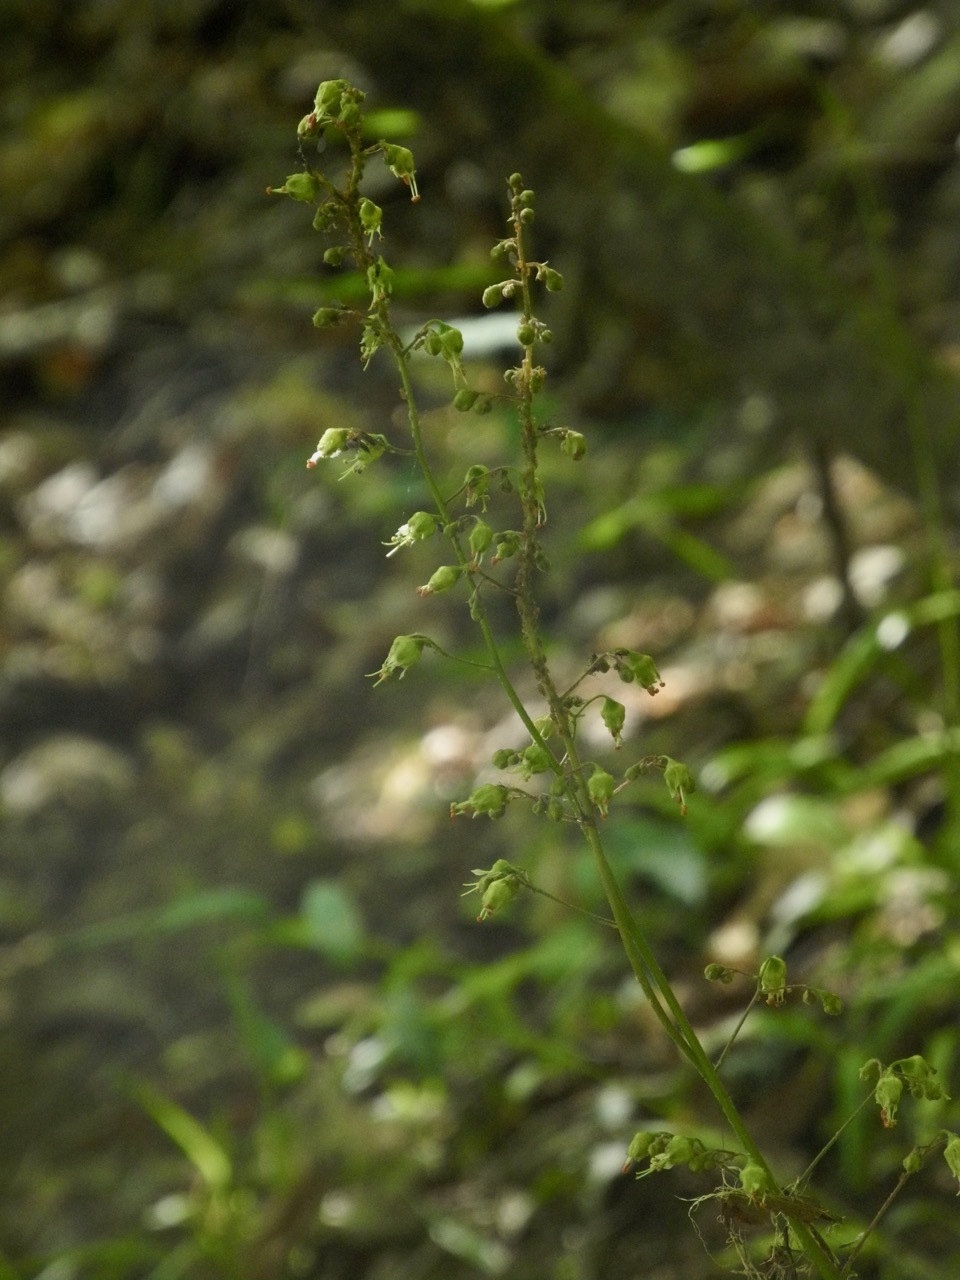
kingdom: Plantae
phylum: Tracheophyta
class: Magnoliopsida
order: Saxifragales
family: Saxifragaceae
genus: Heuchera
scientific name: Heuchera americana
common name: Alumroot
